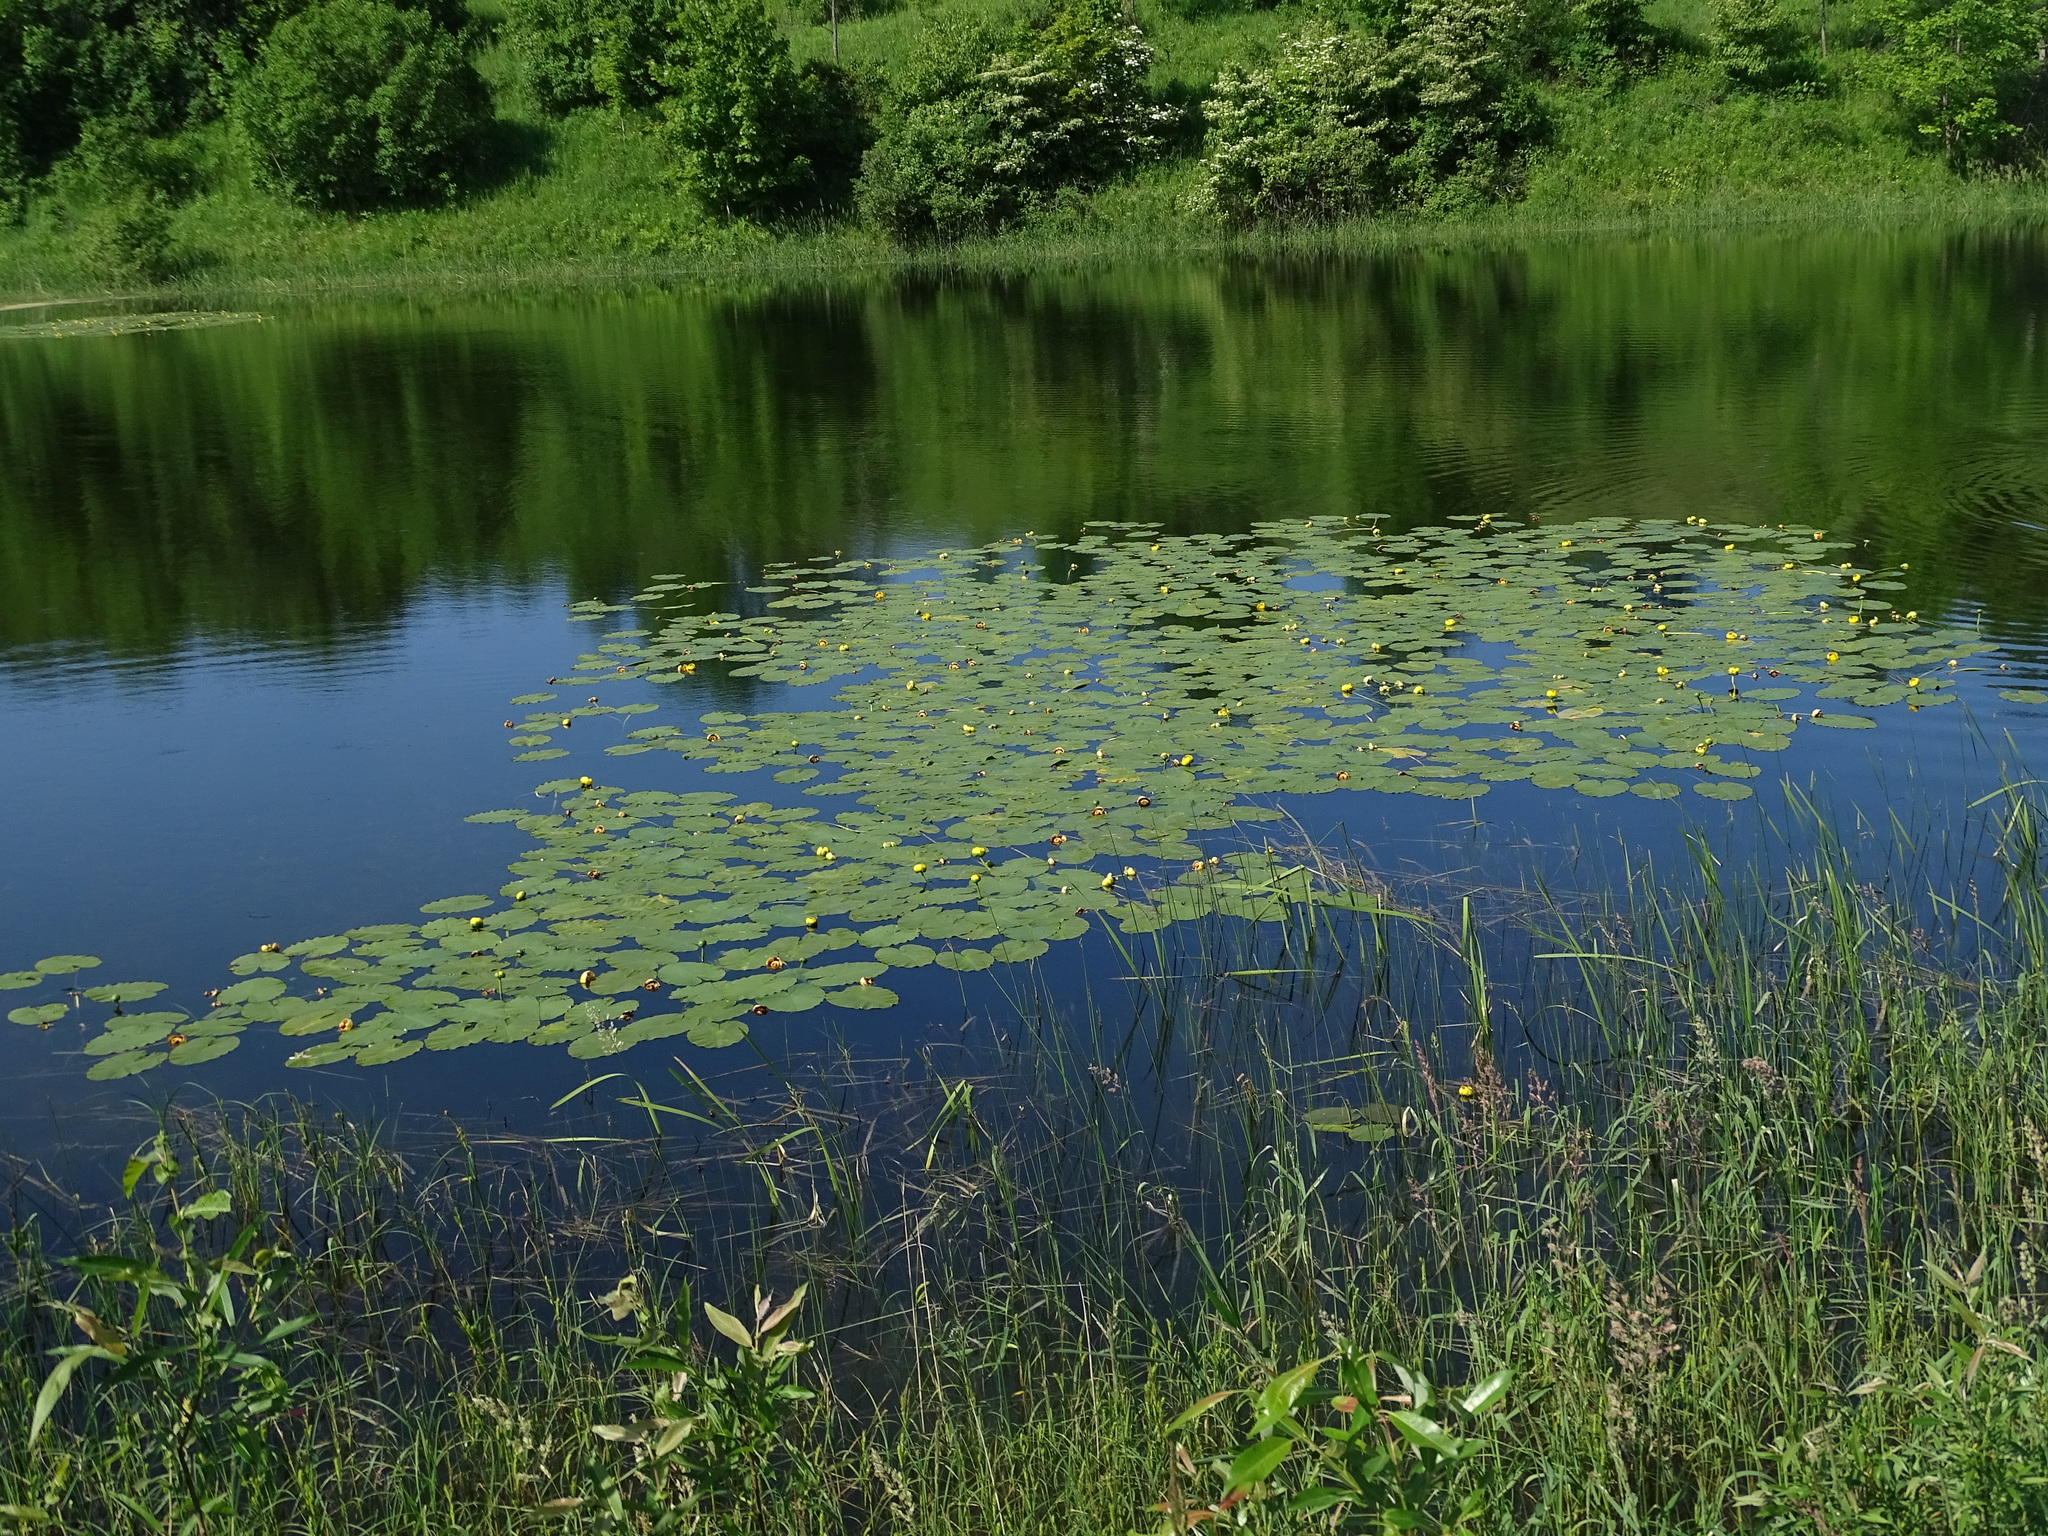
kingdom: Plantae
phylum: Tracheophyta
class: Magnoliopsida
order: Nymphaeales
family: Nymphaeaceae
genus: Nuphar
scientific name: Nuphar variegata
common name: Beaver-root
